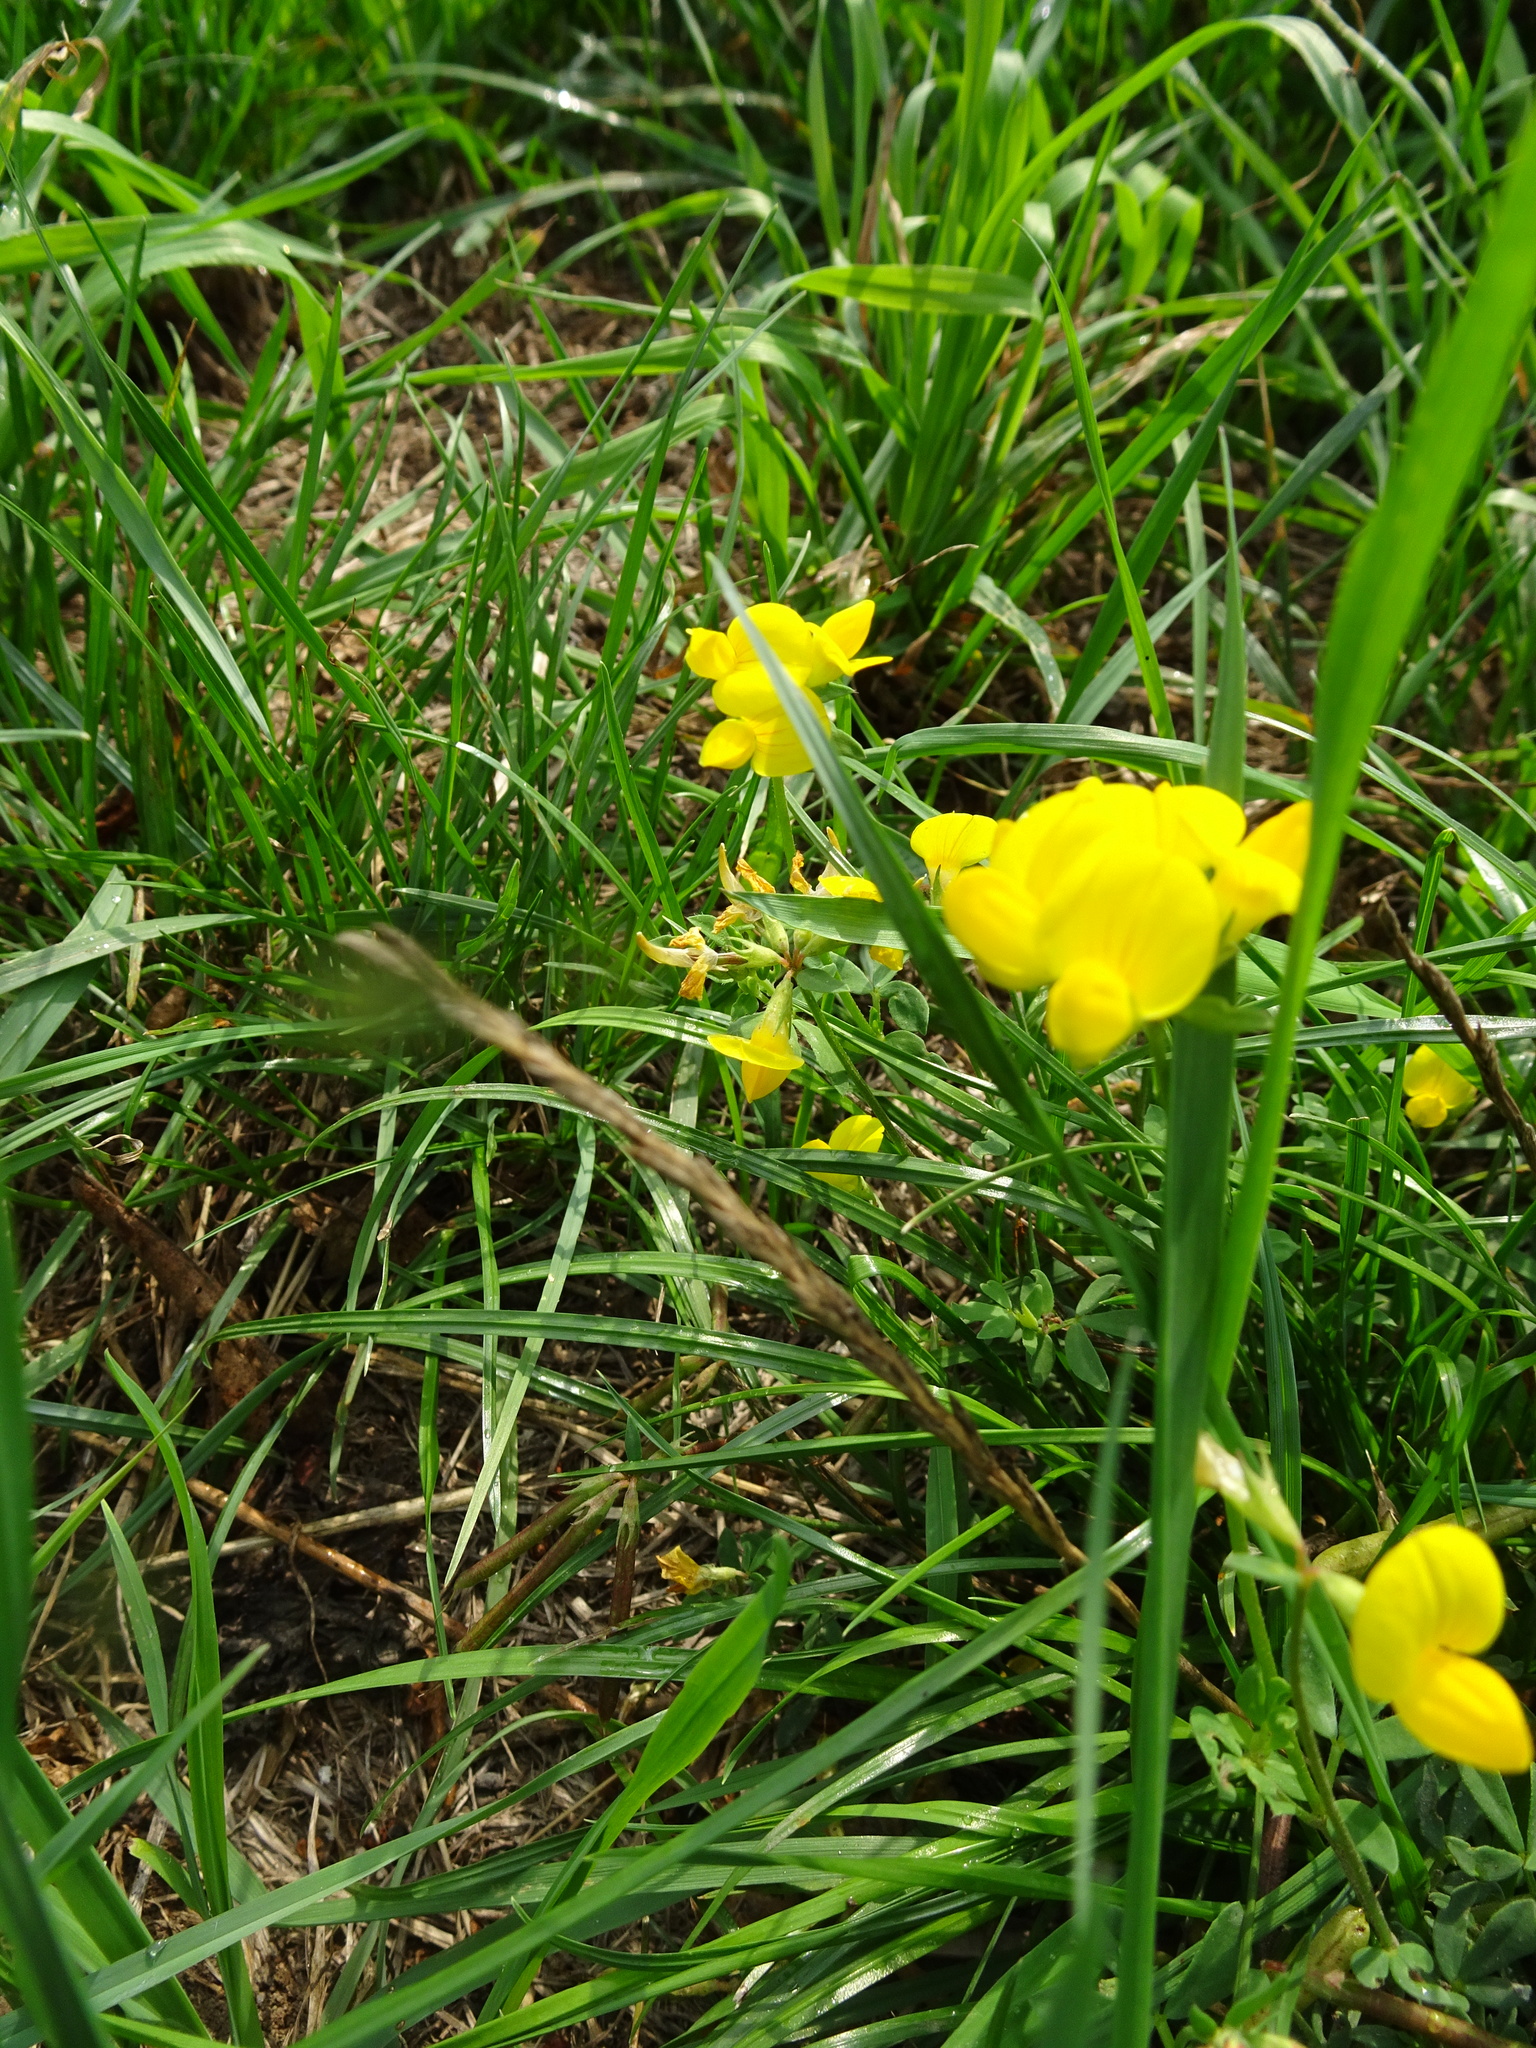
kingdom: Plantae
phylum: Tracheophyta
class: Magnoliopsida
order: Fabales
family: Fabaceae
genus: Lotus
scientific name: Lotus corniculatus
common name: Common bird's-foot-trefoil
